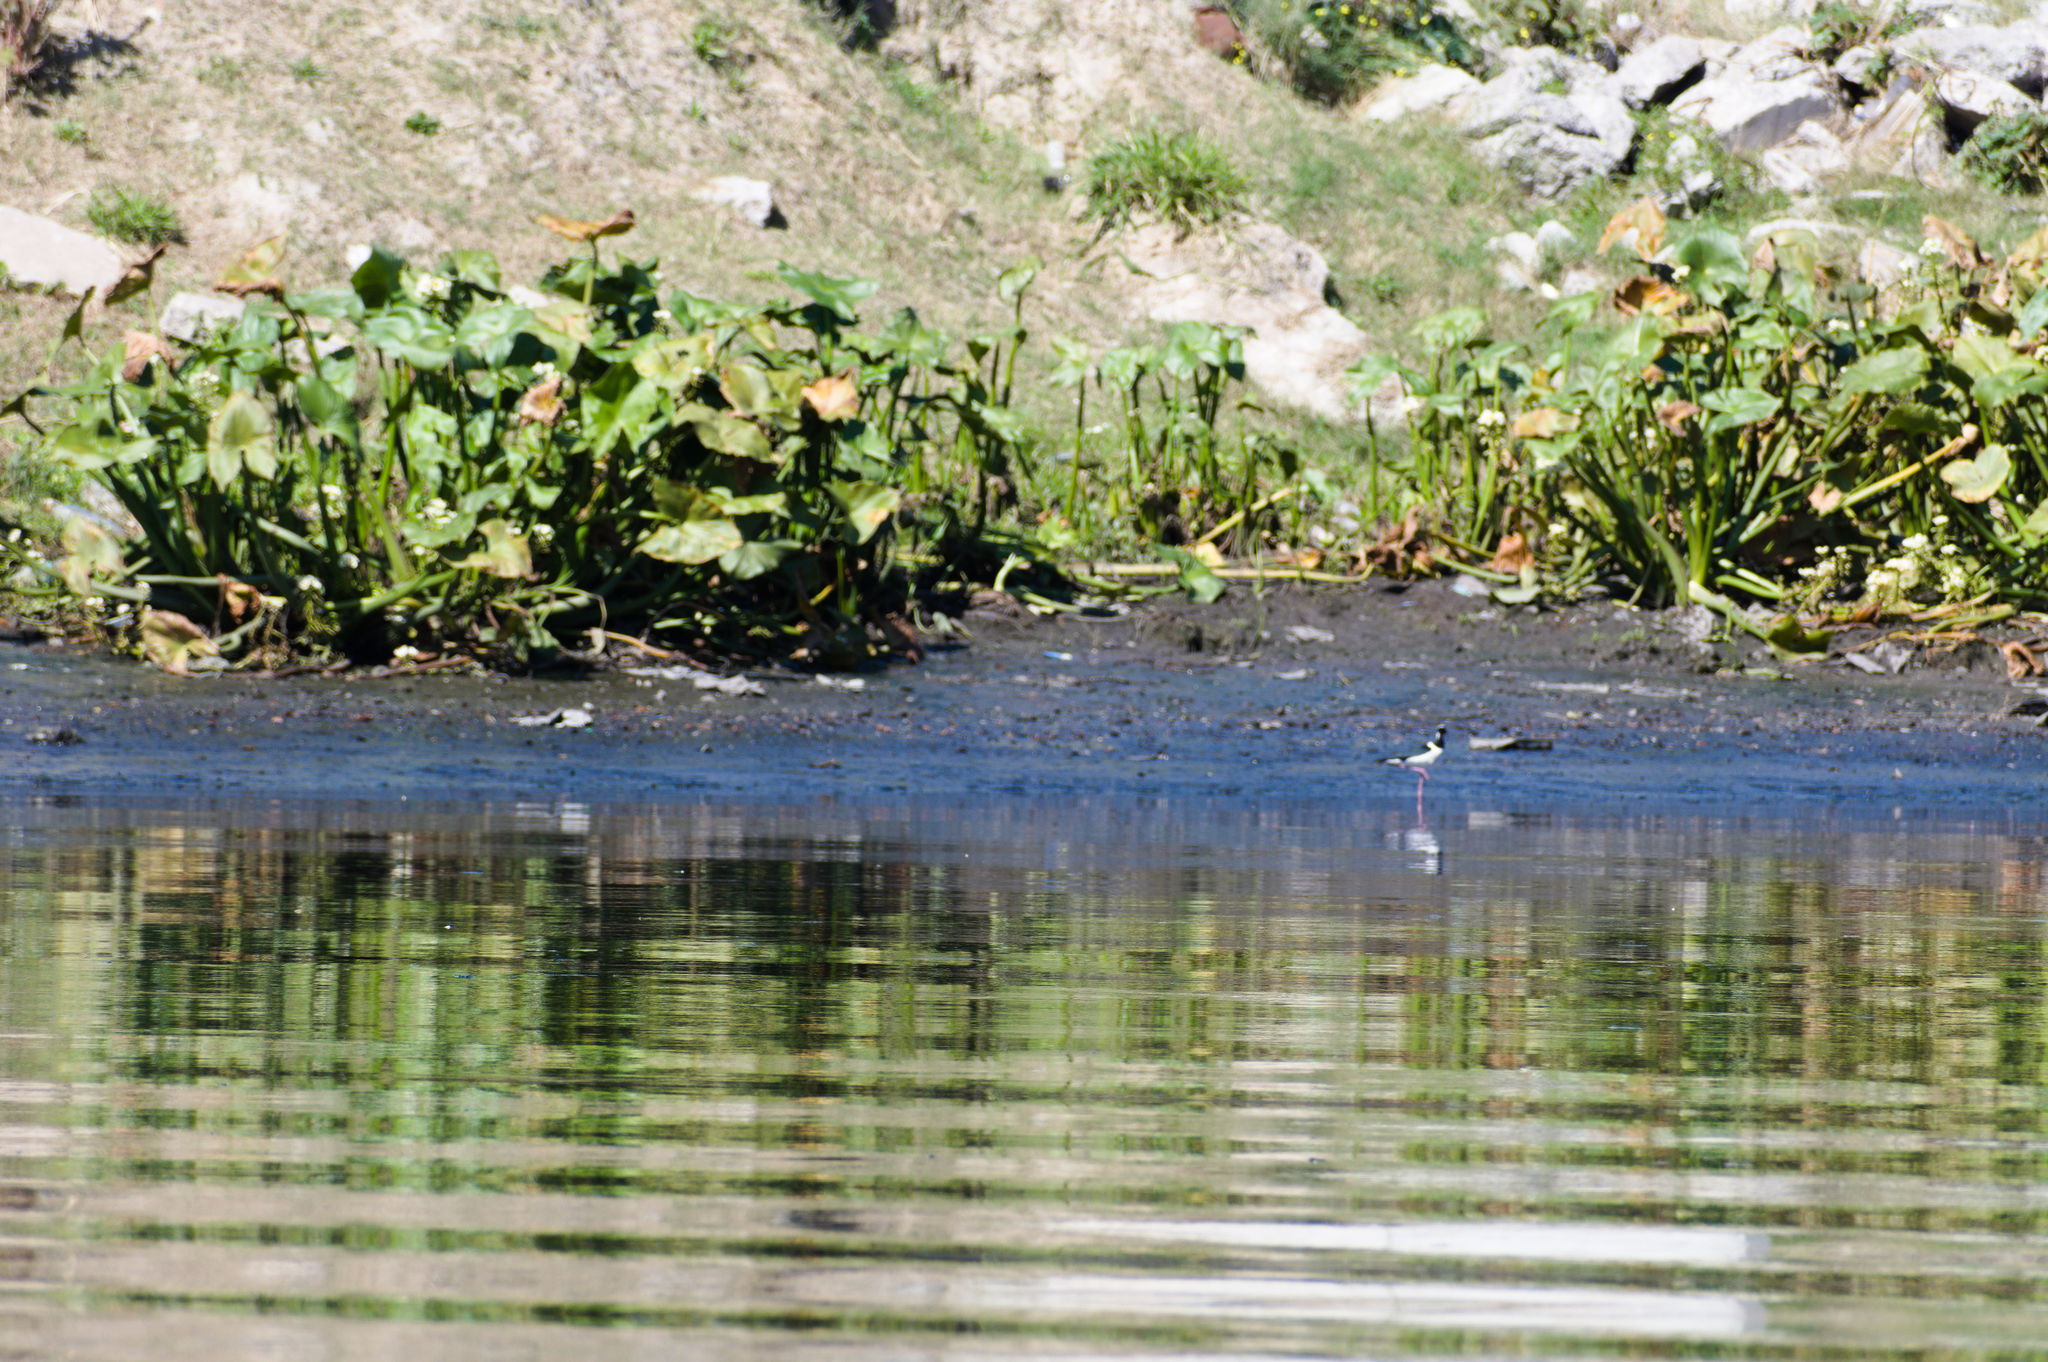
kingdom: Animalia
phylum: Chordata
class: Aves
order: Charadriiformes
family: Recurvirostridae
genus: Himantopus
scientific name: Himantopus mexicanus
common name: Black-necked stilt
